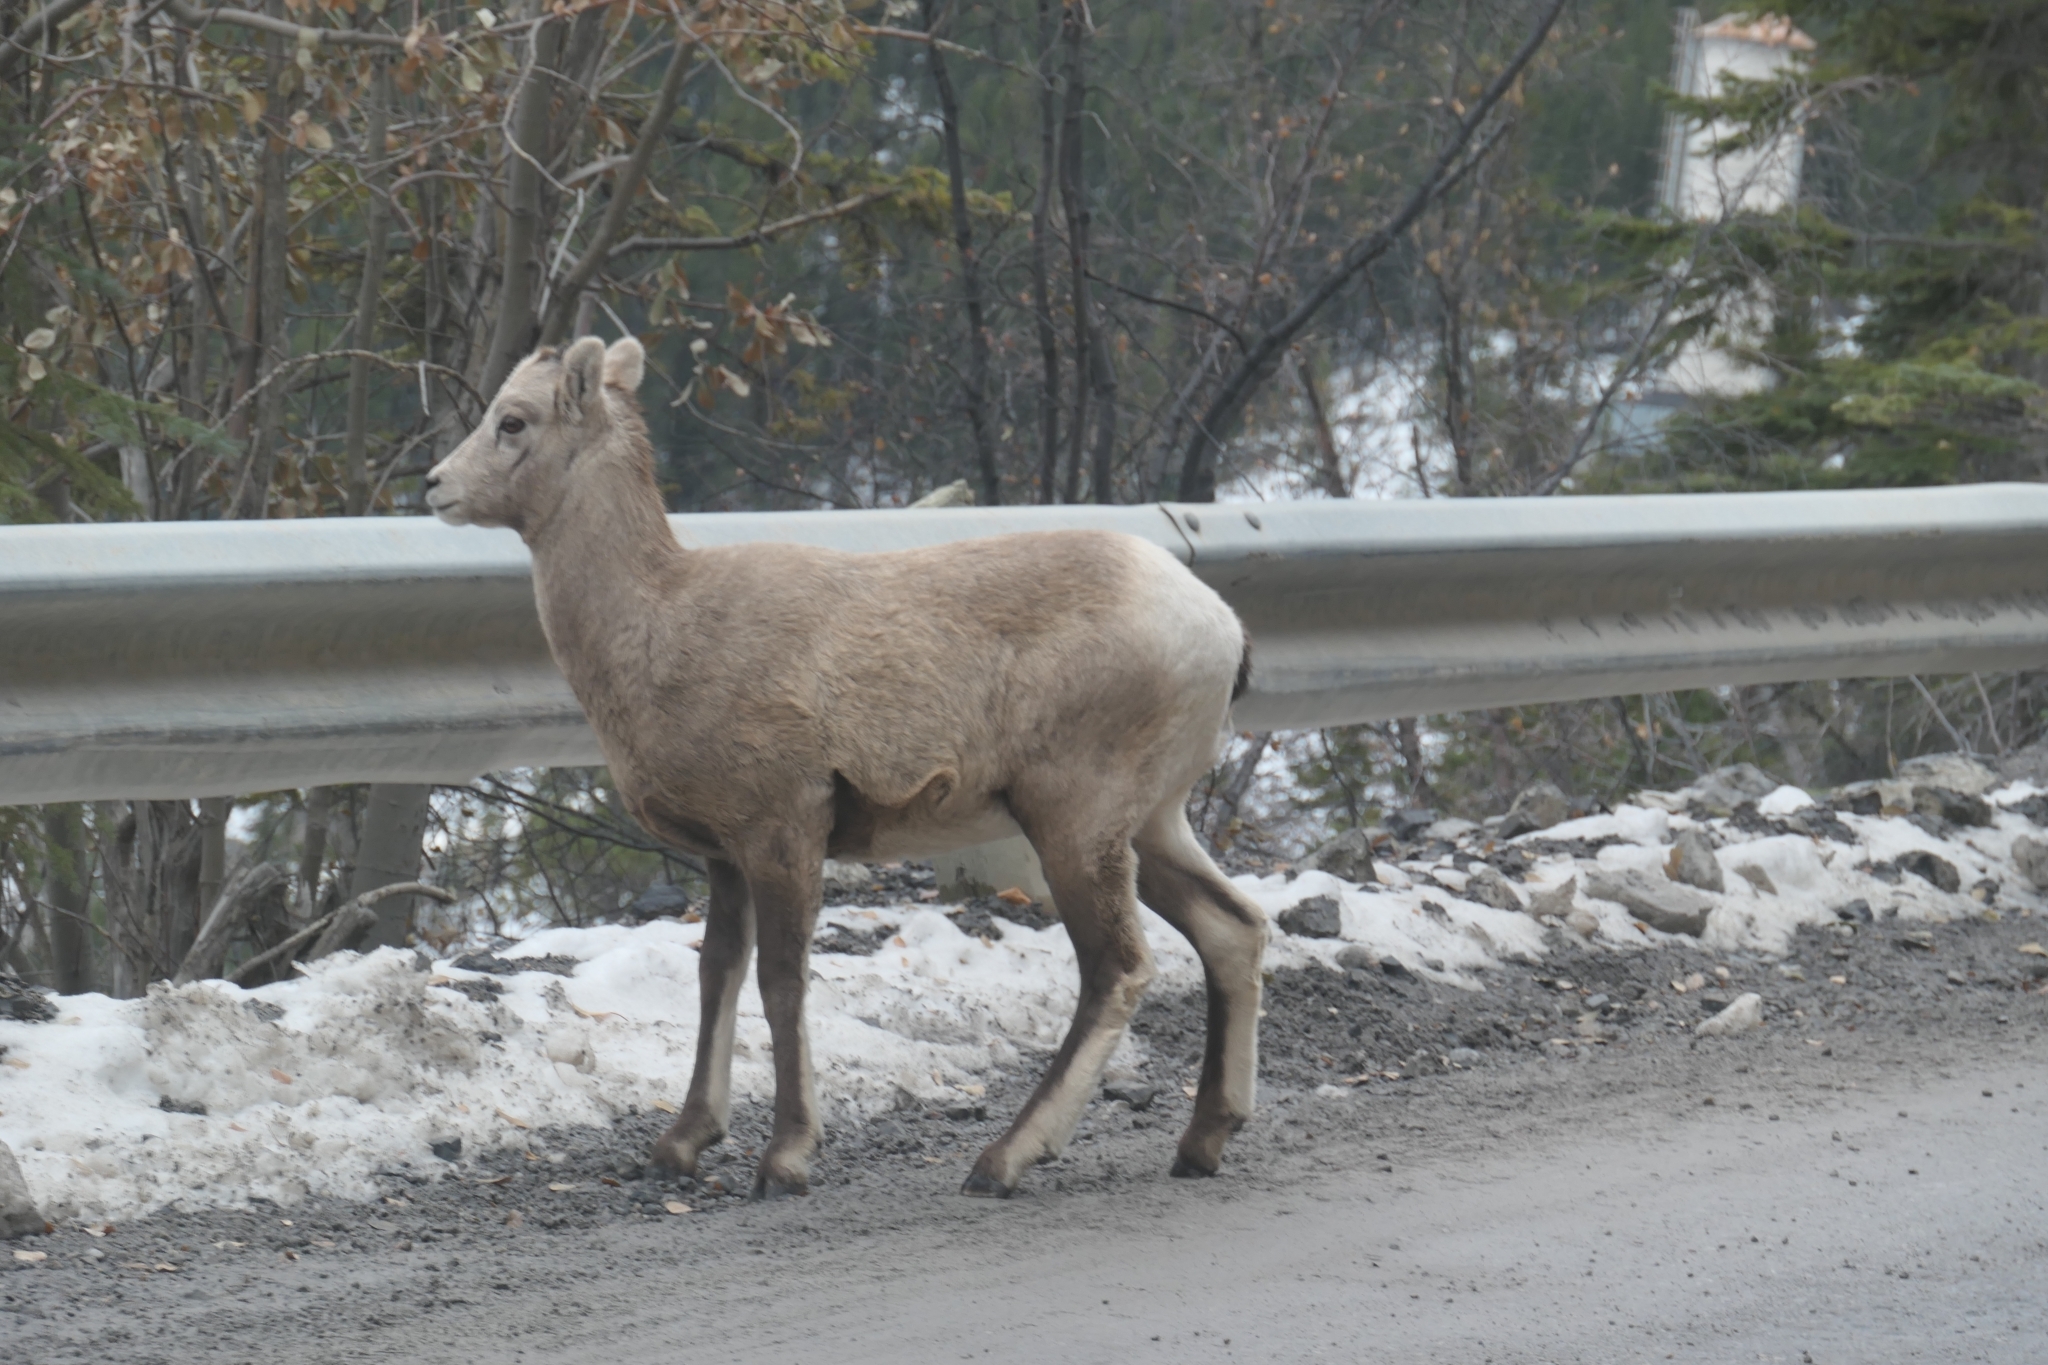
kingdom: Animalia
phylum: Chordata
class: Mammalia
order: Artiodactyla
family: Bovidae
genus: Ovis
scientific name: Ovis canadensis
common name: Bighorn sheep
